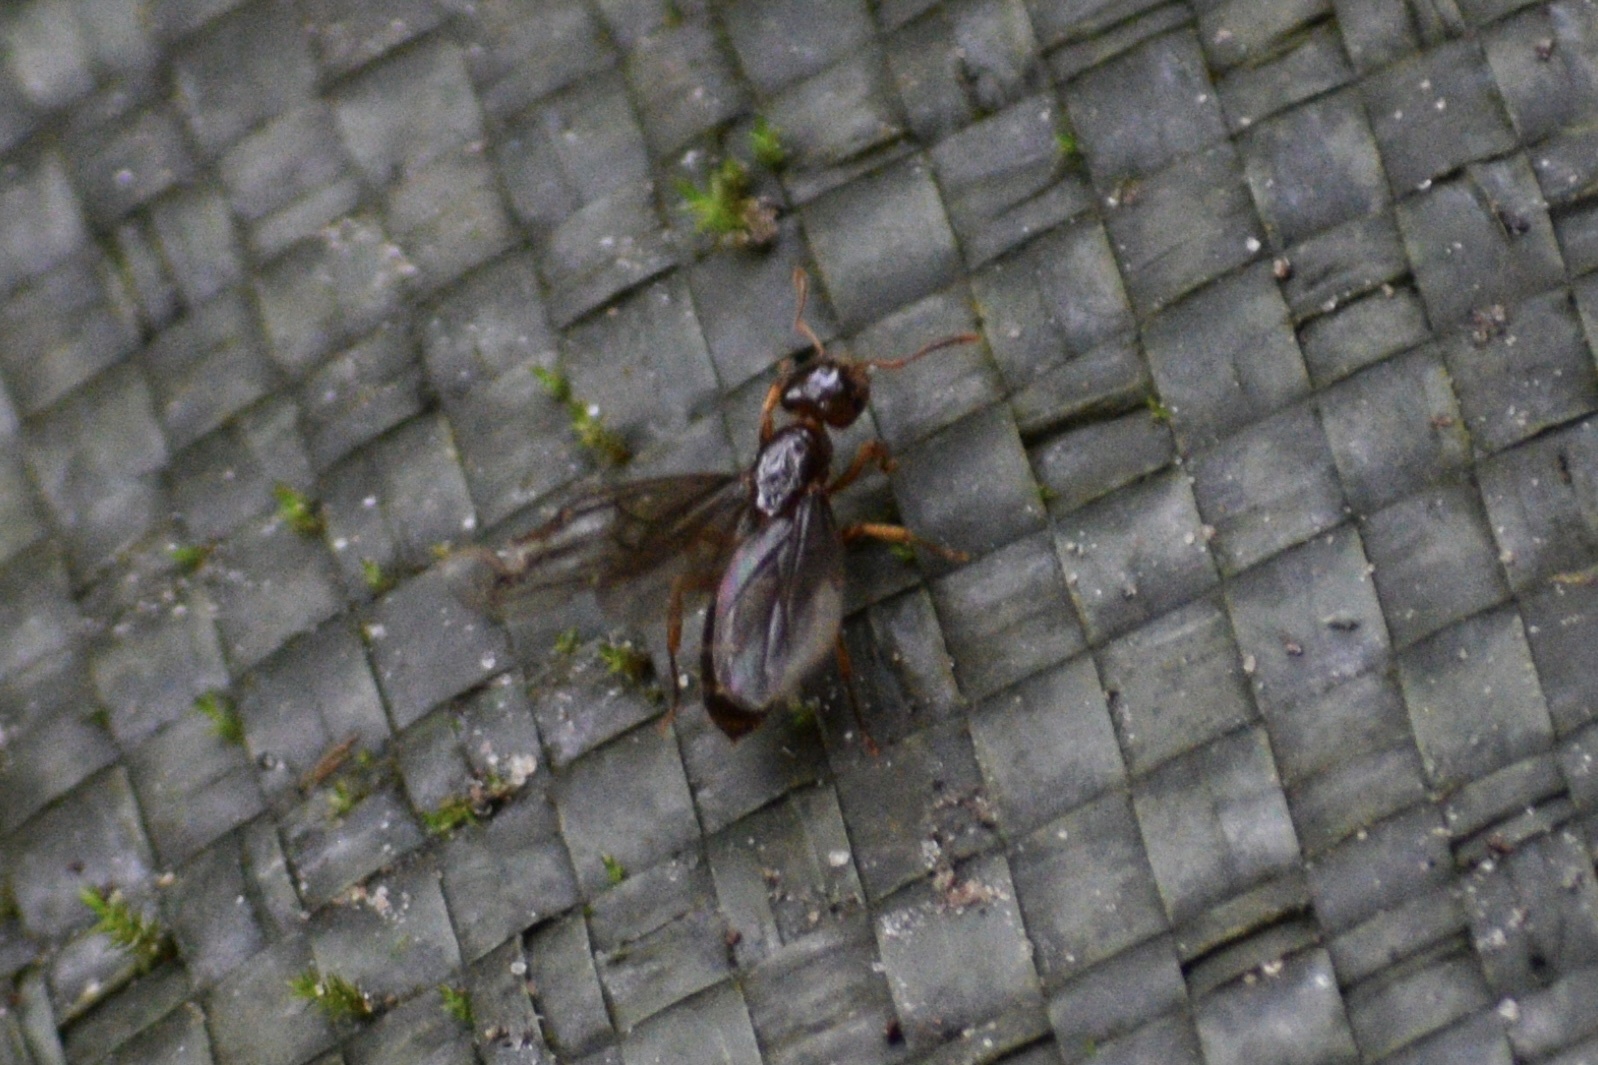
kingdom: Animalia
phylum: Arthropoda
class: Insecta
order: Hymenoptera
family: Formicidae
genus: Lasius
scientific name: Lasius claviger
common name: Common citronella ant
